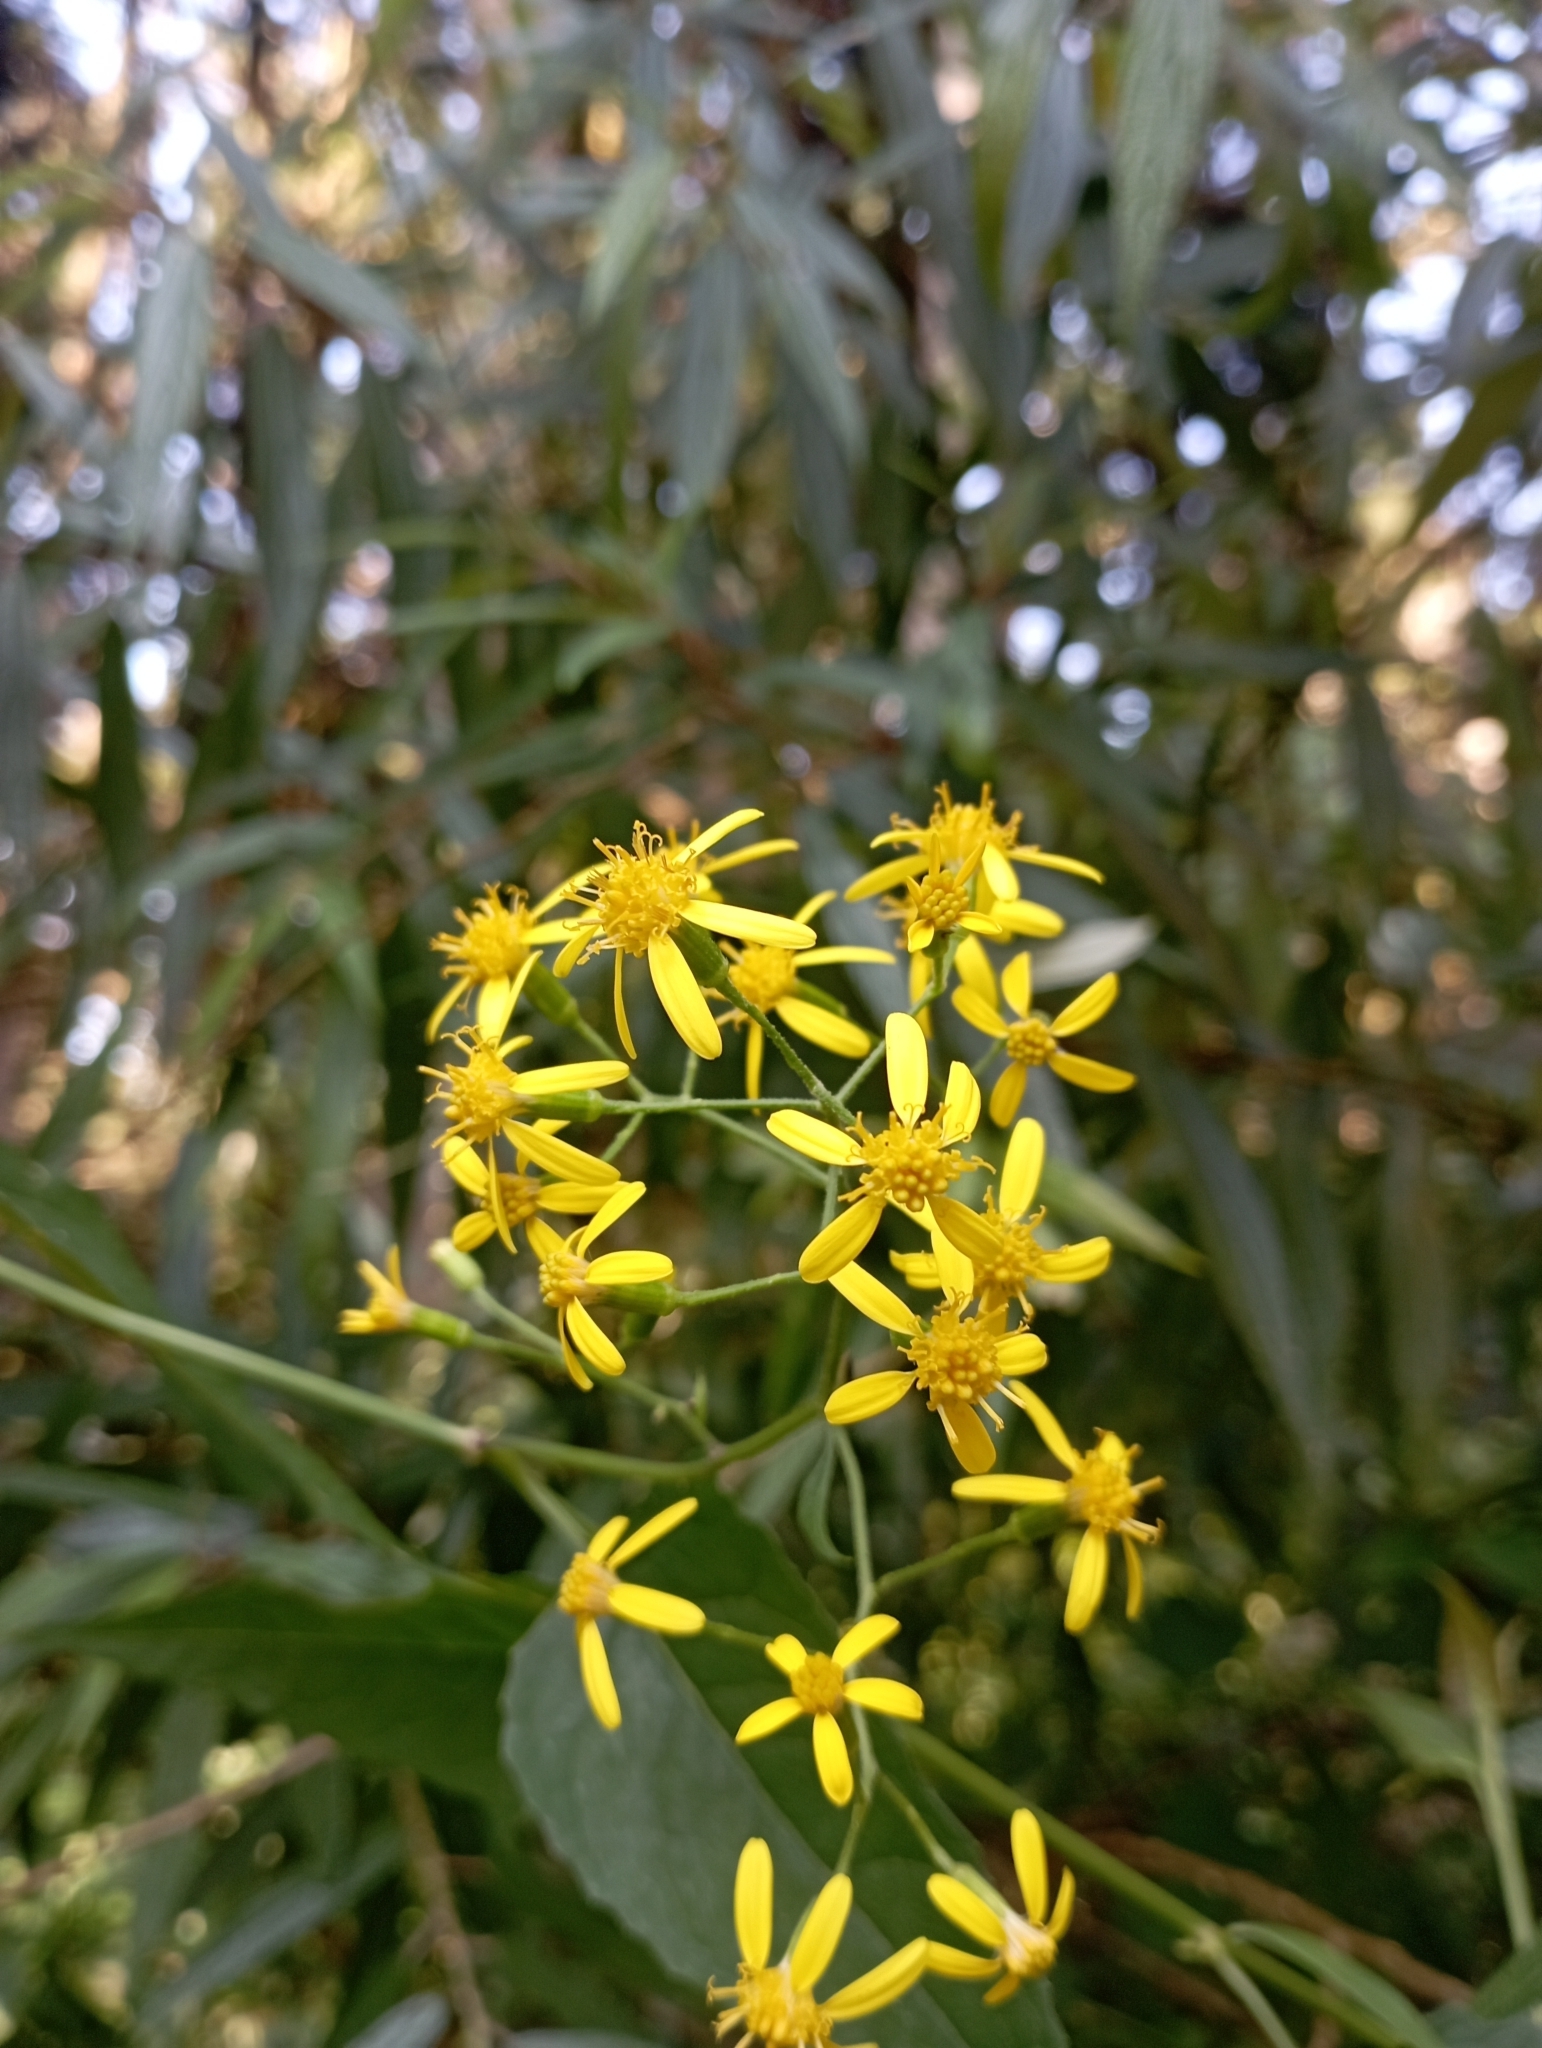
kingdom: Plantae
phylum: Tracheophyta
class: Magnoliopsida
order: Asterales
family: Asteraceae
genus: Senecio
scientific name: Senecio scandens
